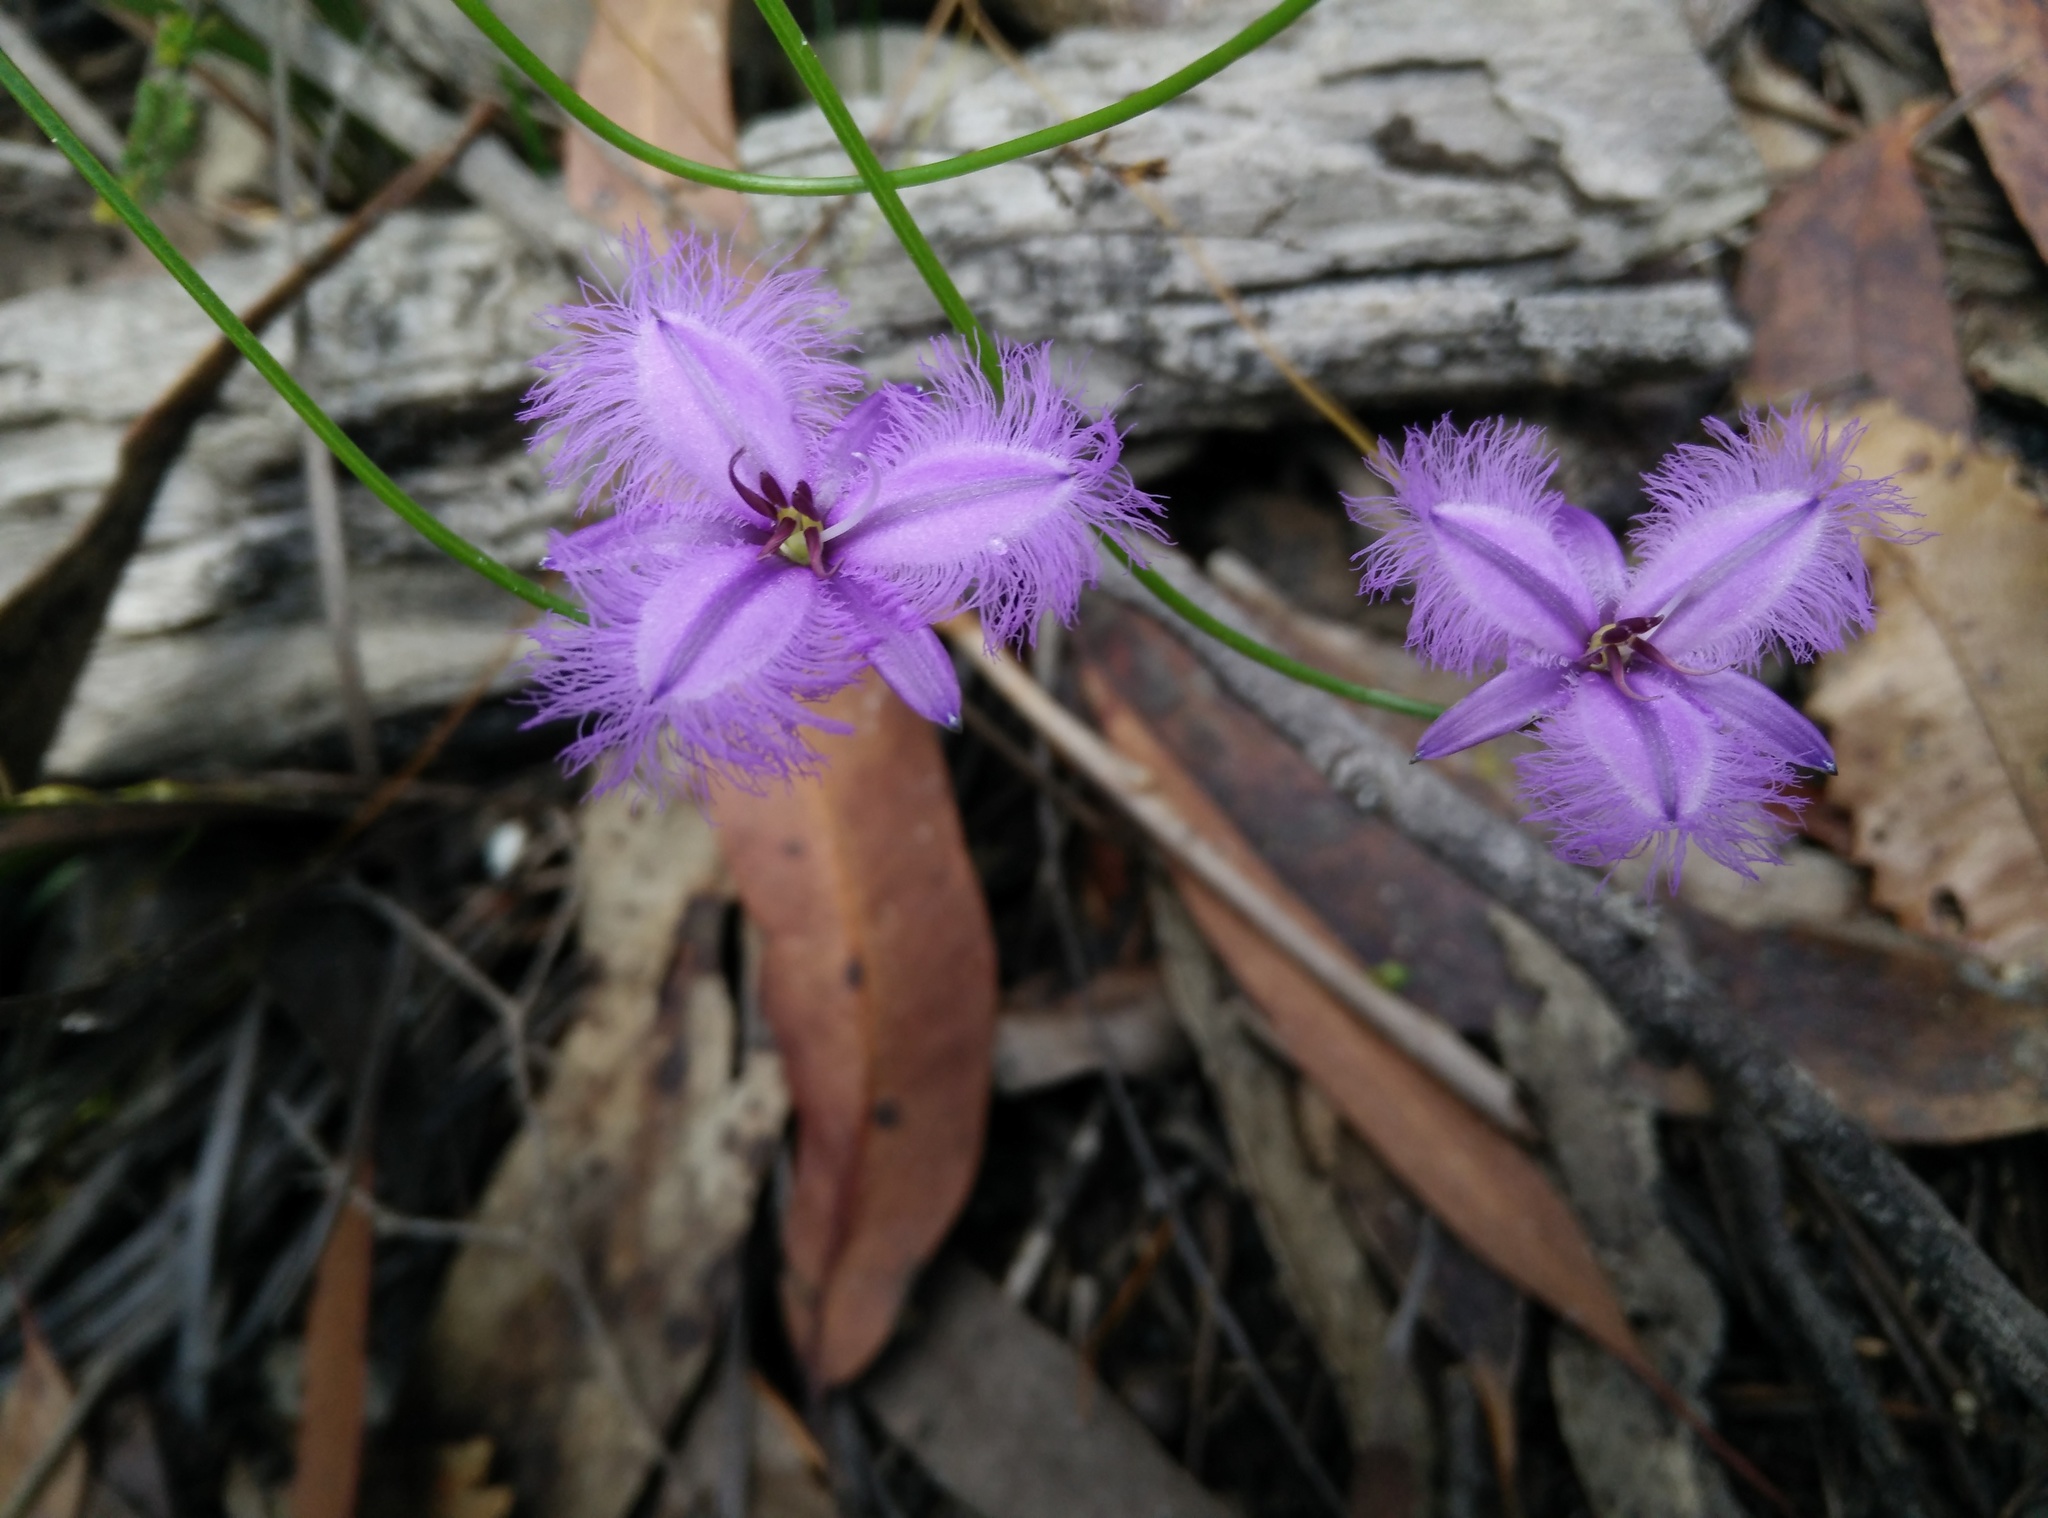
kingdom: Plantae
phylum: Tracheophyta
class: Liliopsida
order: Asparagales
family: Asparagaceae
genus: Thysanotus
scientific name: Thysanotus tuberosus
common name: Common fringed-lily
